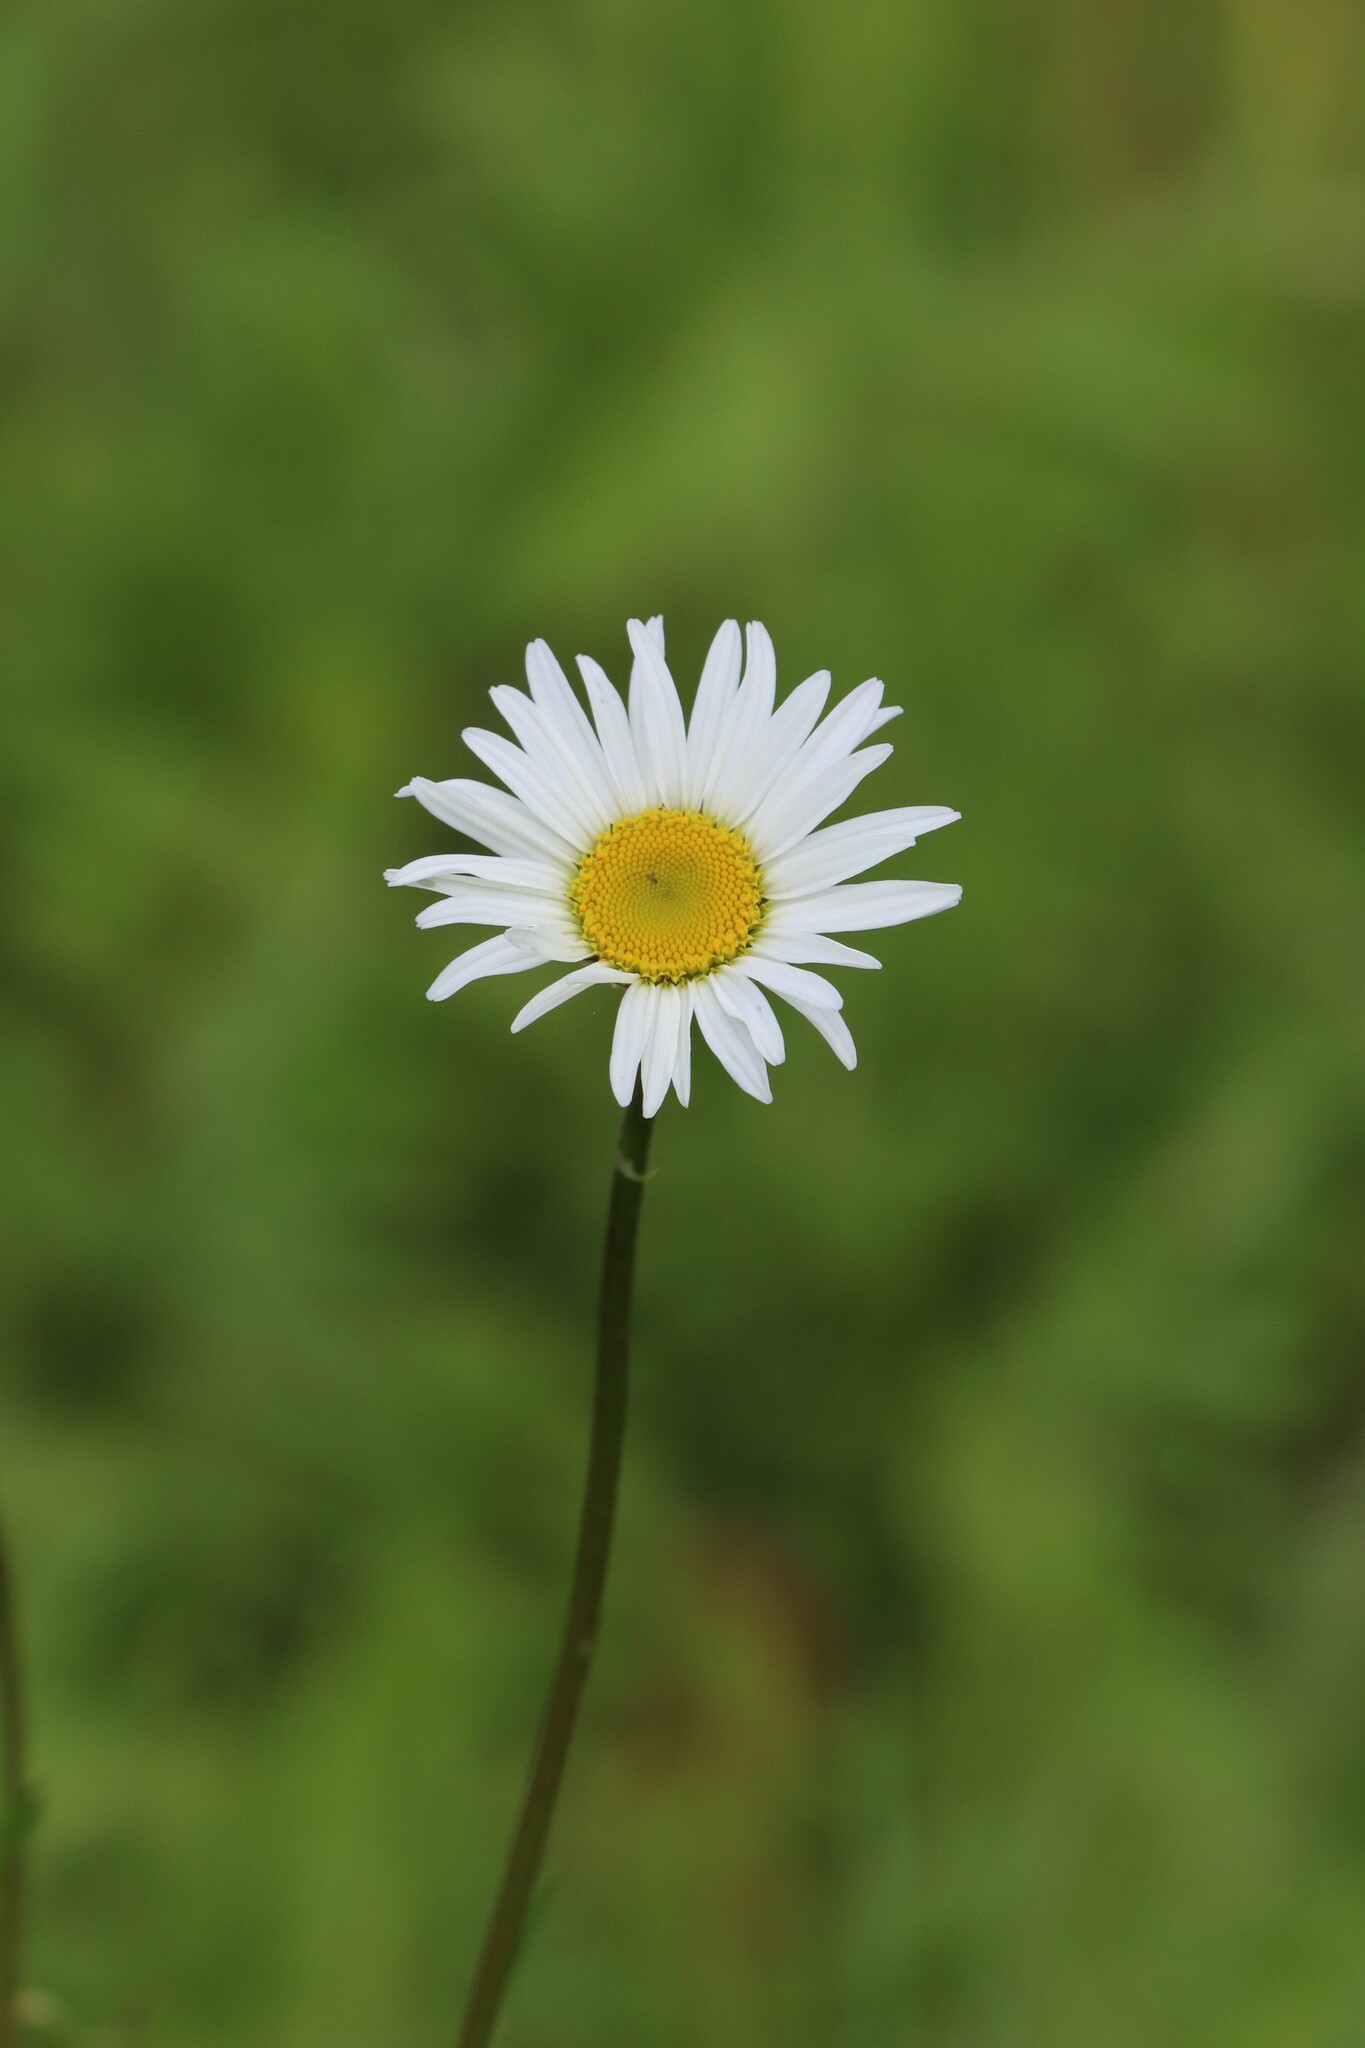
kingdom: Plantae
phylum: Tracheophyta
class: Magnoliopsida
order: Asterales
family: Asteraceae
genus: Leucanthemum
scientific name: Leucanthemum vulgare
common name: Oxeye daisy
